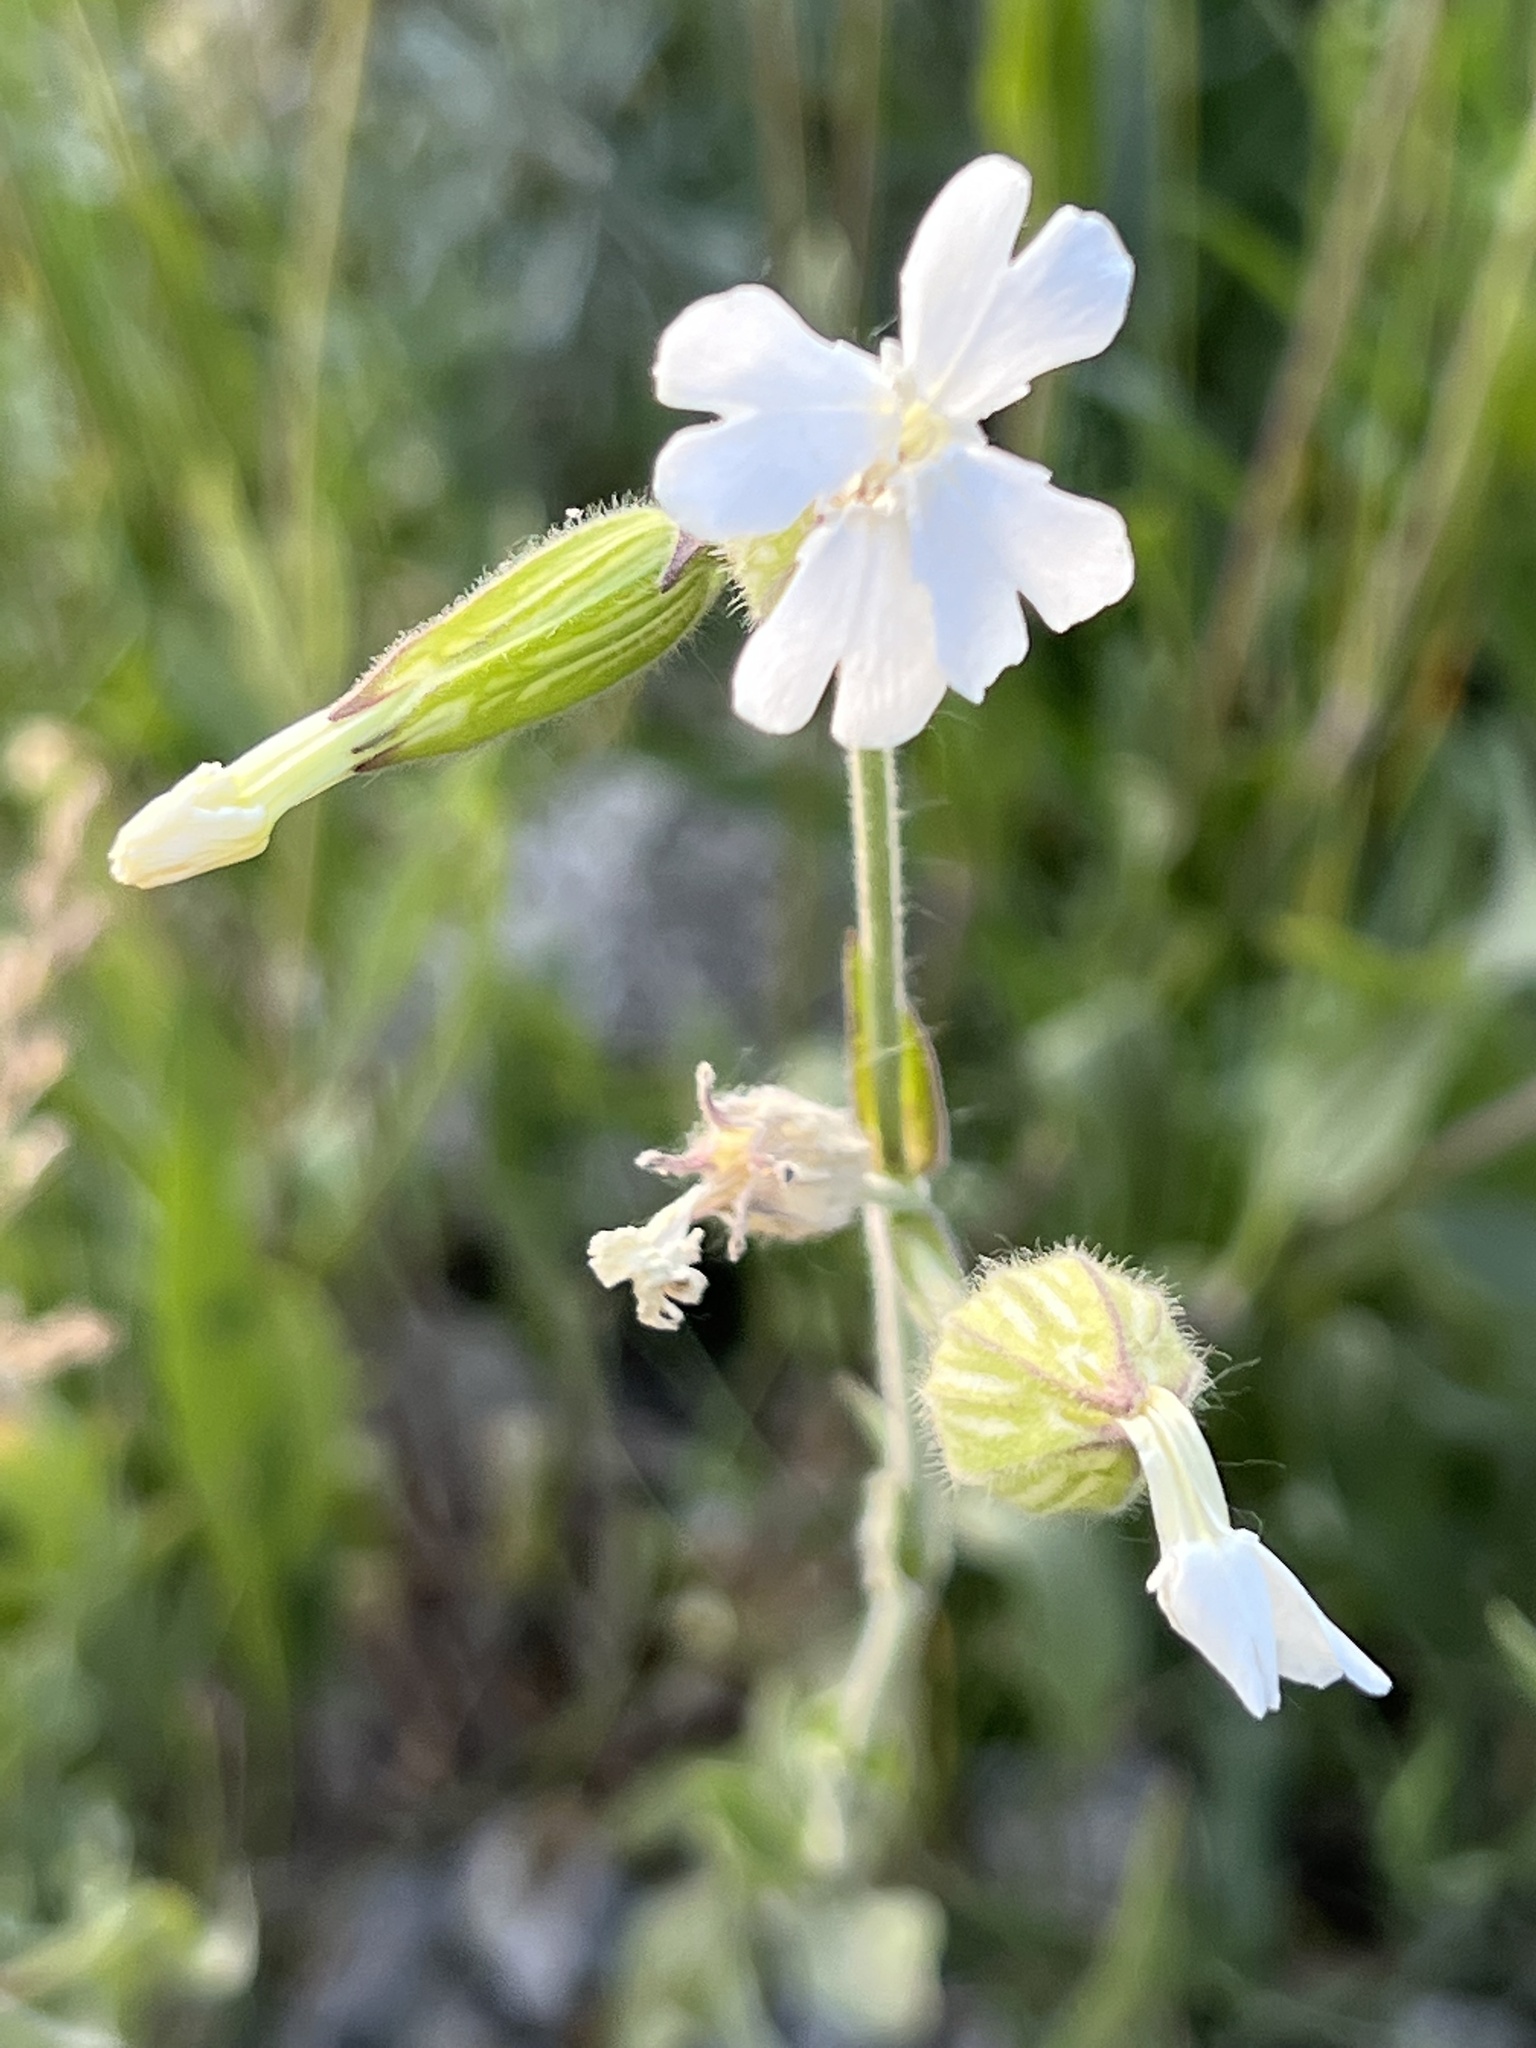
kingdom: Plantae
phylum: Tracheophyta
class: Magnoliopsida
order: Caryophyllales
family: Caryophyllaceae
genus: Silene
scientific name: Silene latifolia
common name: White campion
